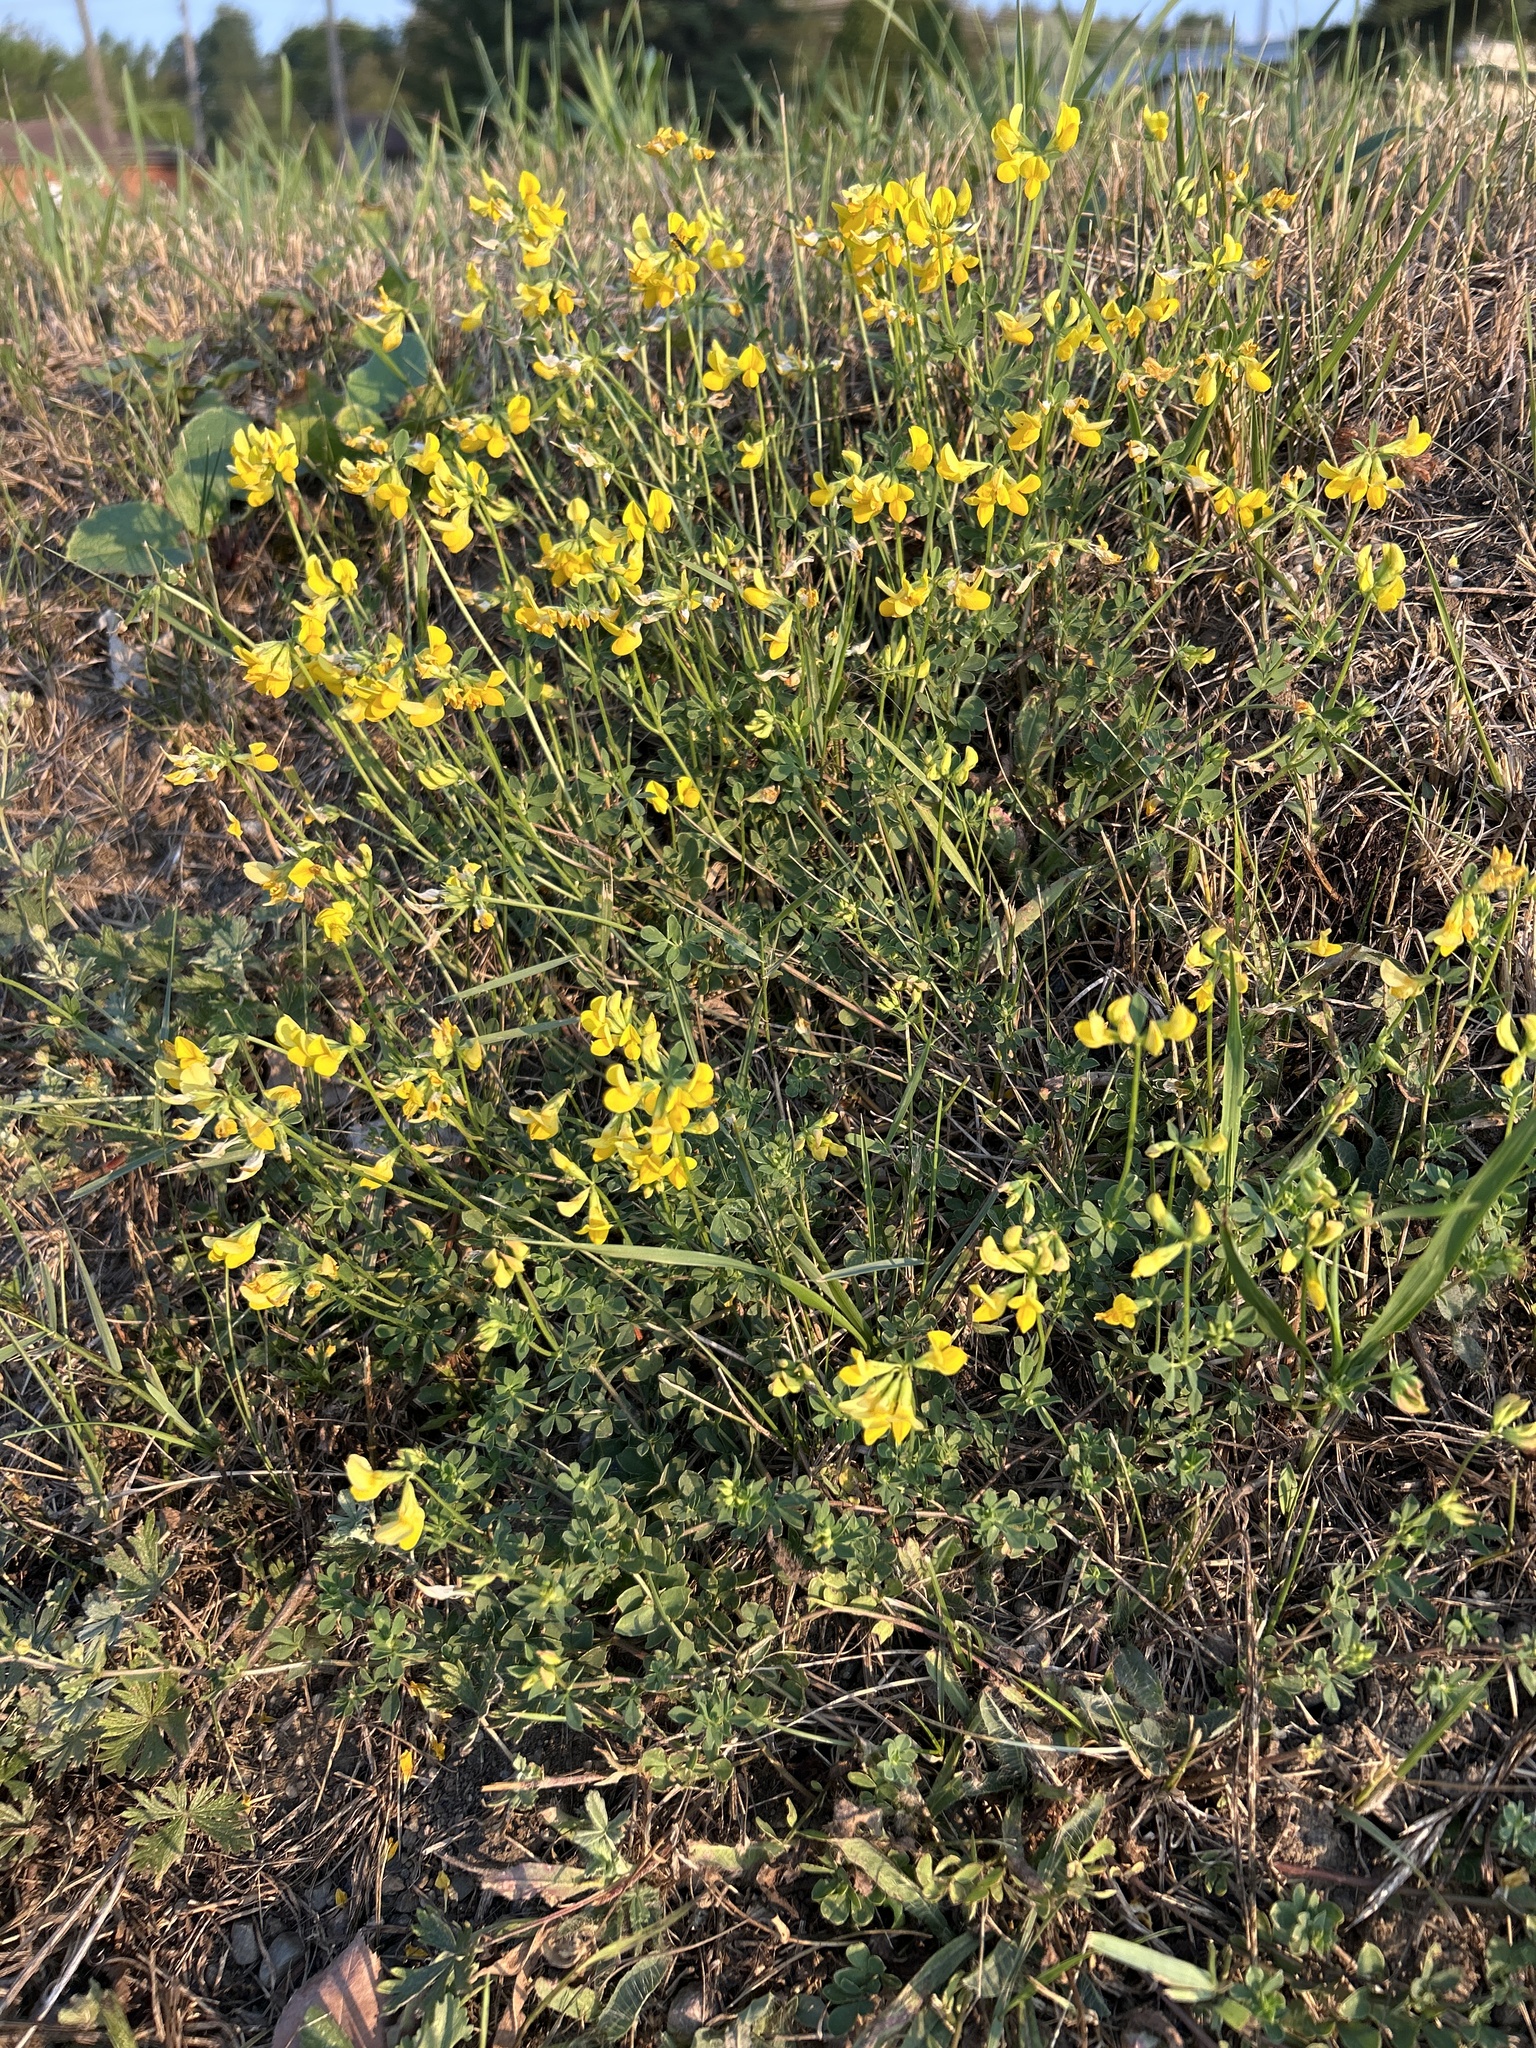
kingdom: Plantae
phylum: Tracheophyta
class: Magnoliopsida
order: Fabales
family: Fabaceae
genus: Lotus
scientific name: Lotus corniculatus
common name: Common bird's-foot-trefoil
